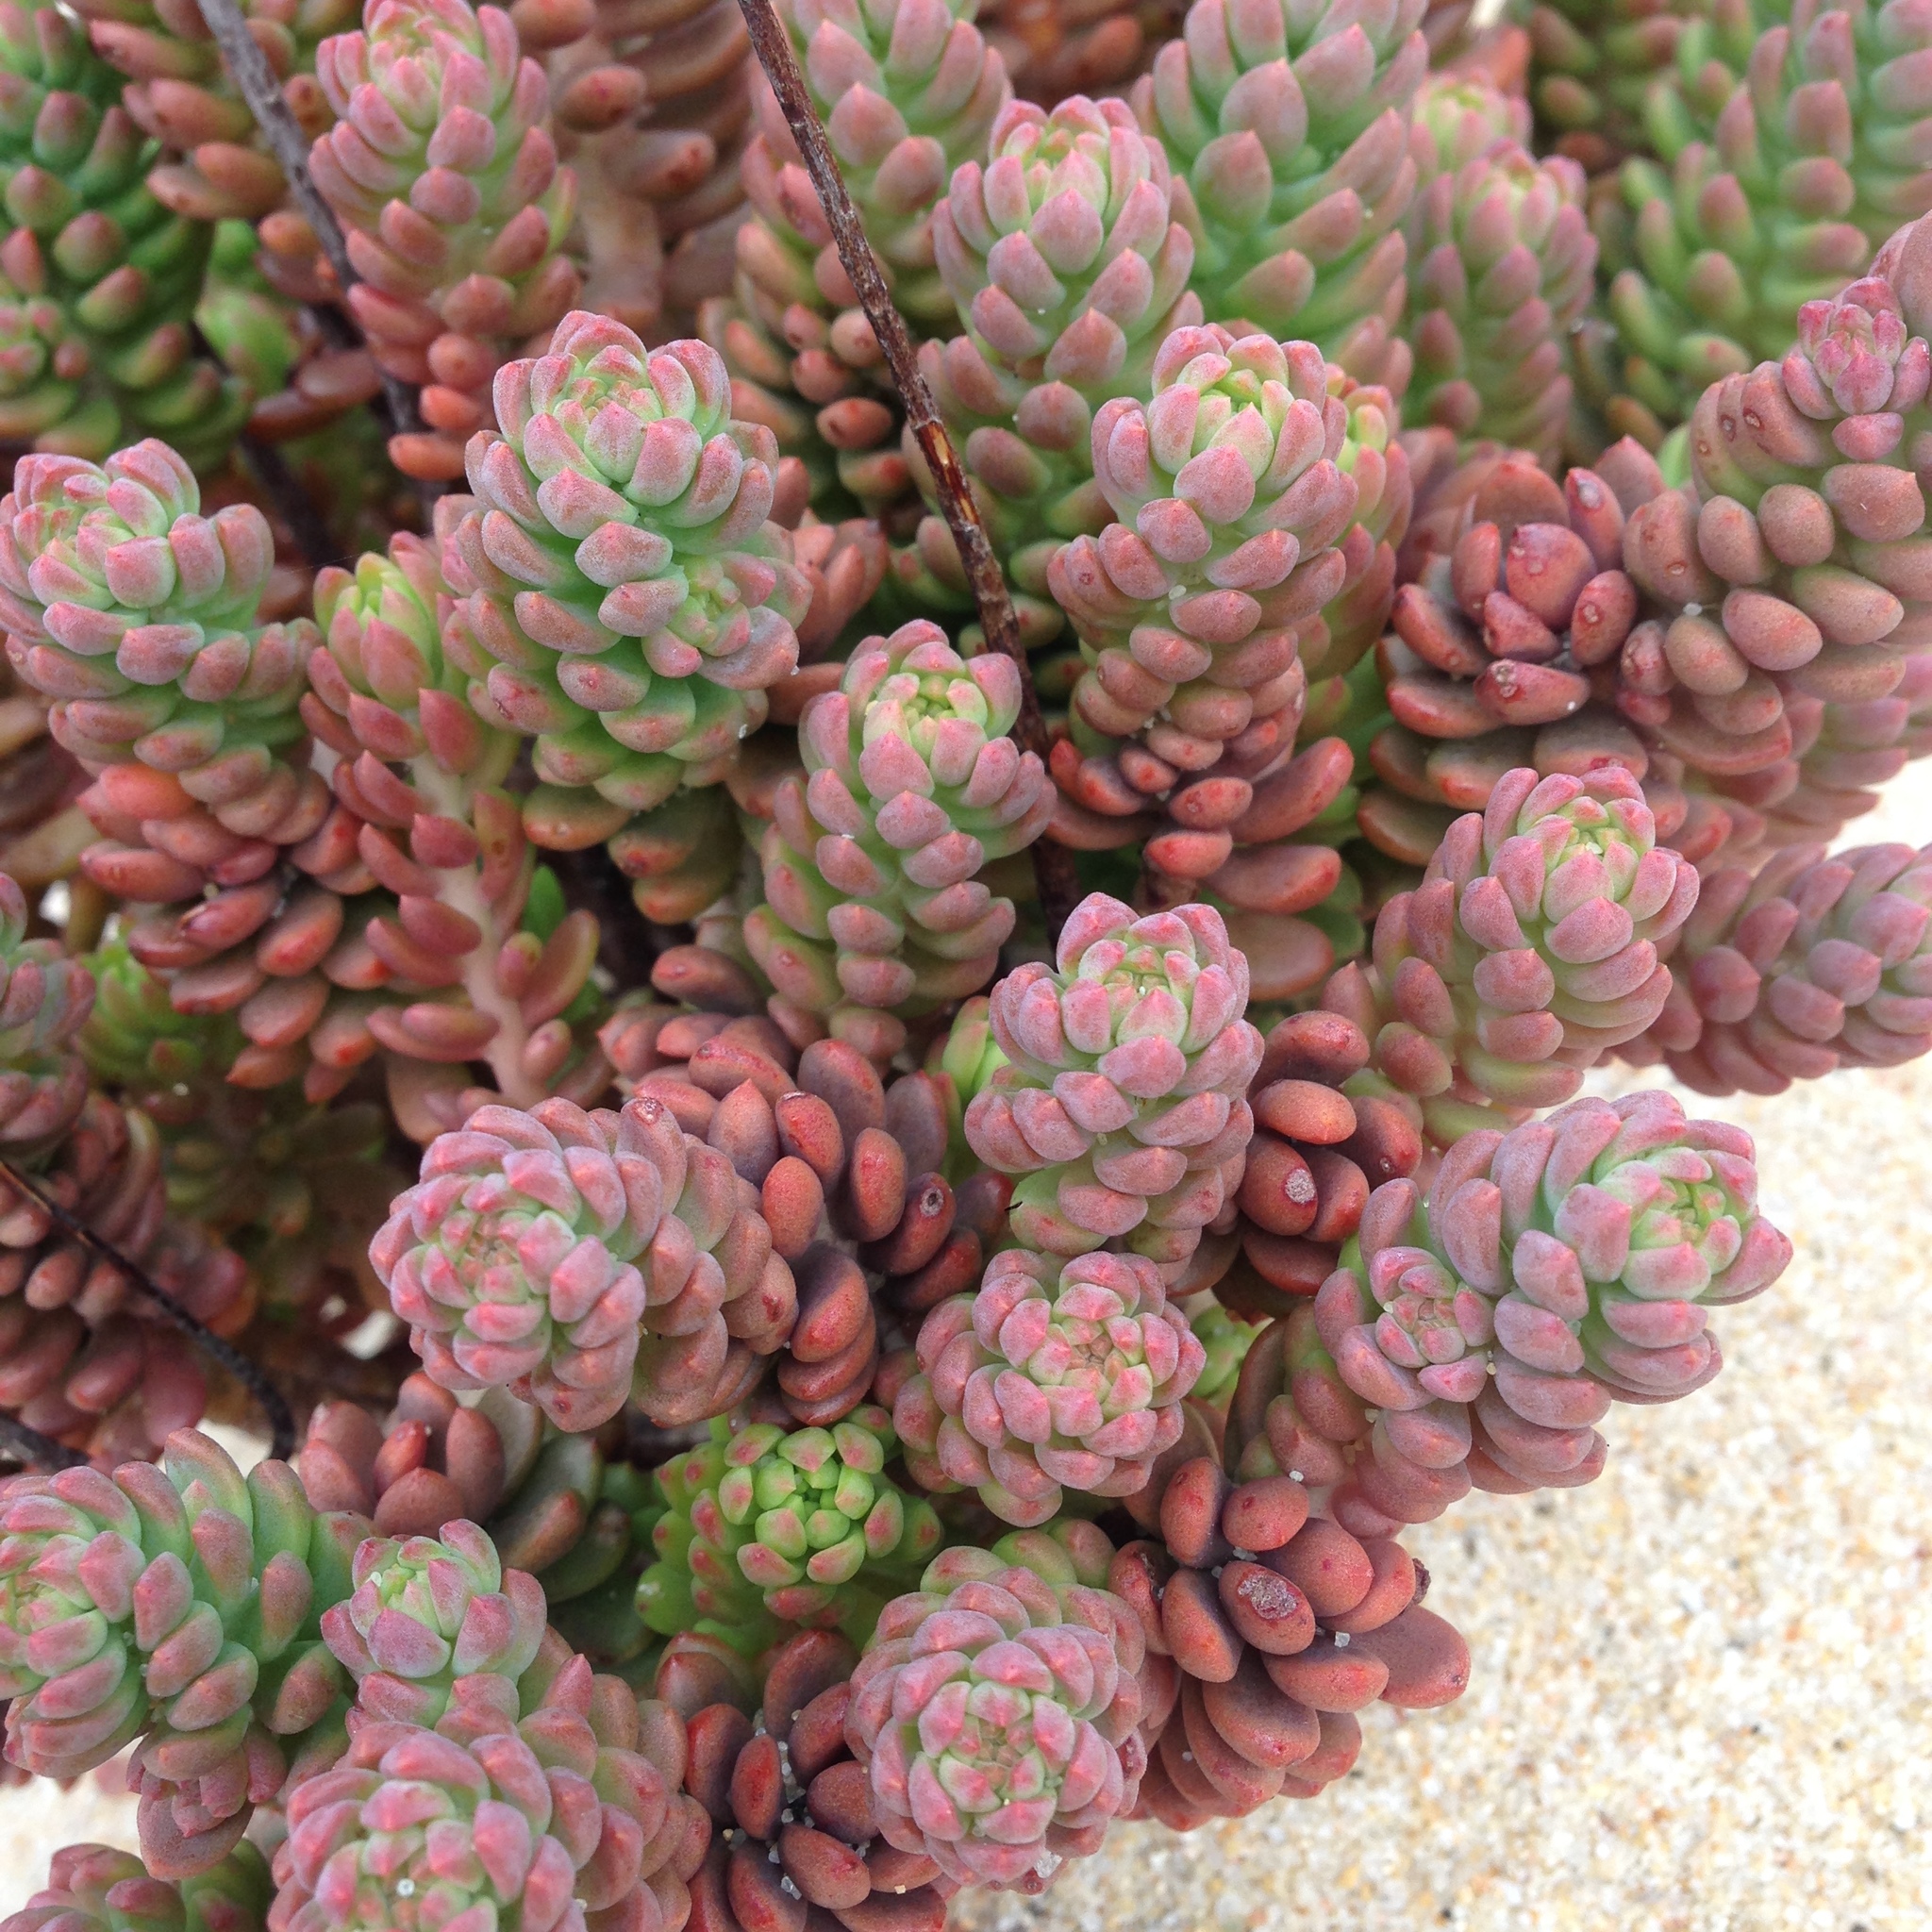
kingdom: Plantae
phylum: Tracheophyta
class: Magnoliopsida
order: Saxifragales
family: Crassulaceae
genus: Petrosedum
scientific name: Petrosedum sediforme
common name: Pale stonecrop
